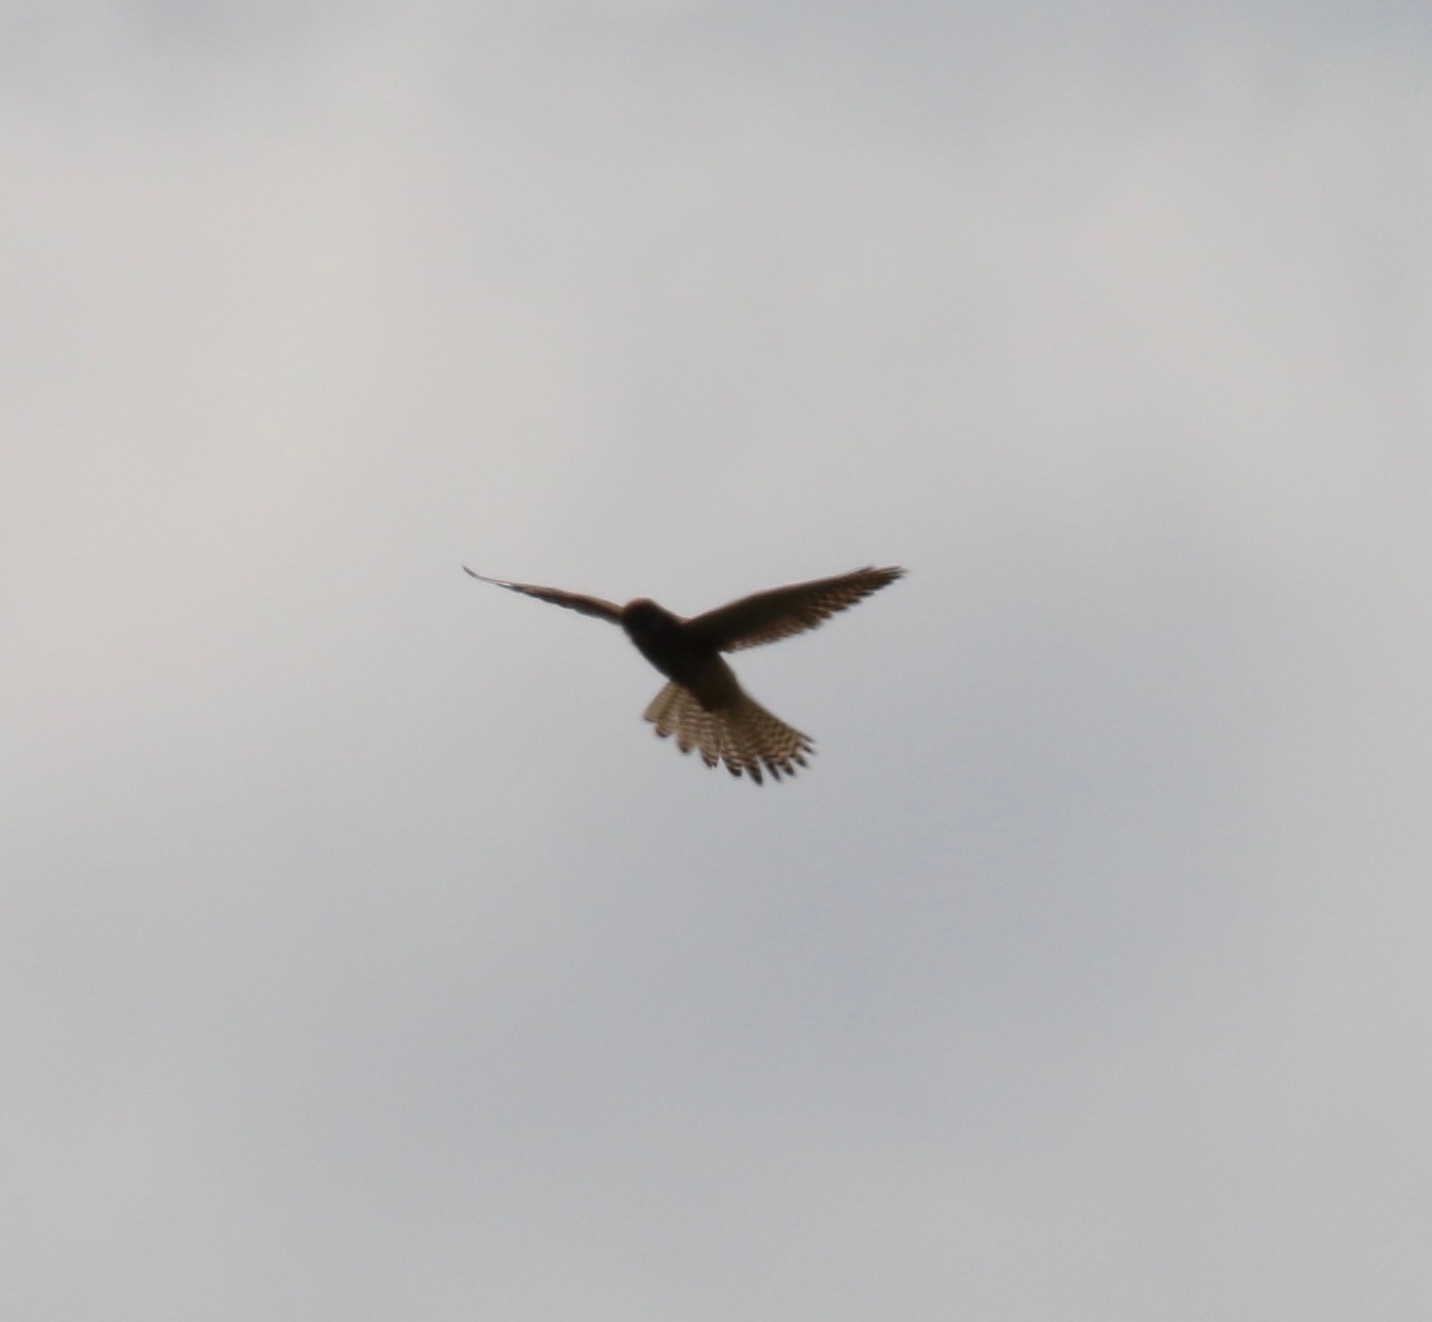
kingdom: Animalia
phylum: Chordata
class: Aves
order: Falconiformes
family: Falconidae
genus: Falco
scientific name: Falco tinnunculus
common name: Common kestrel
